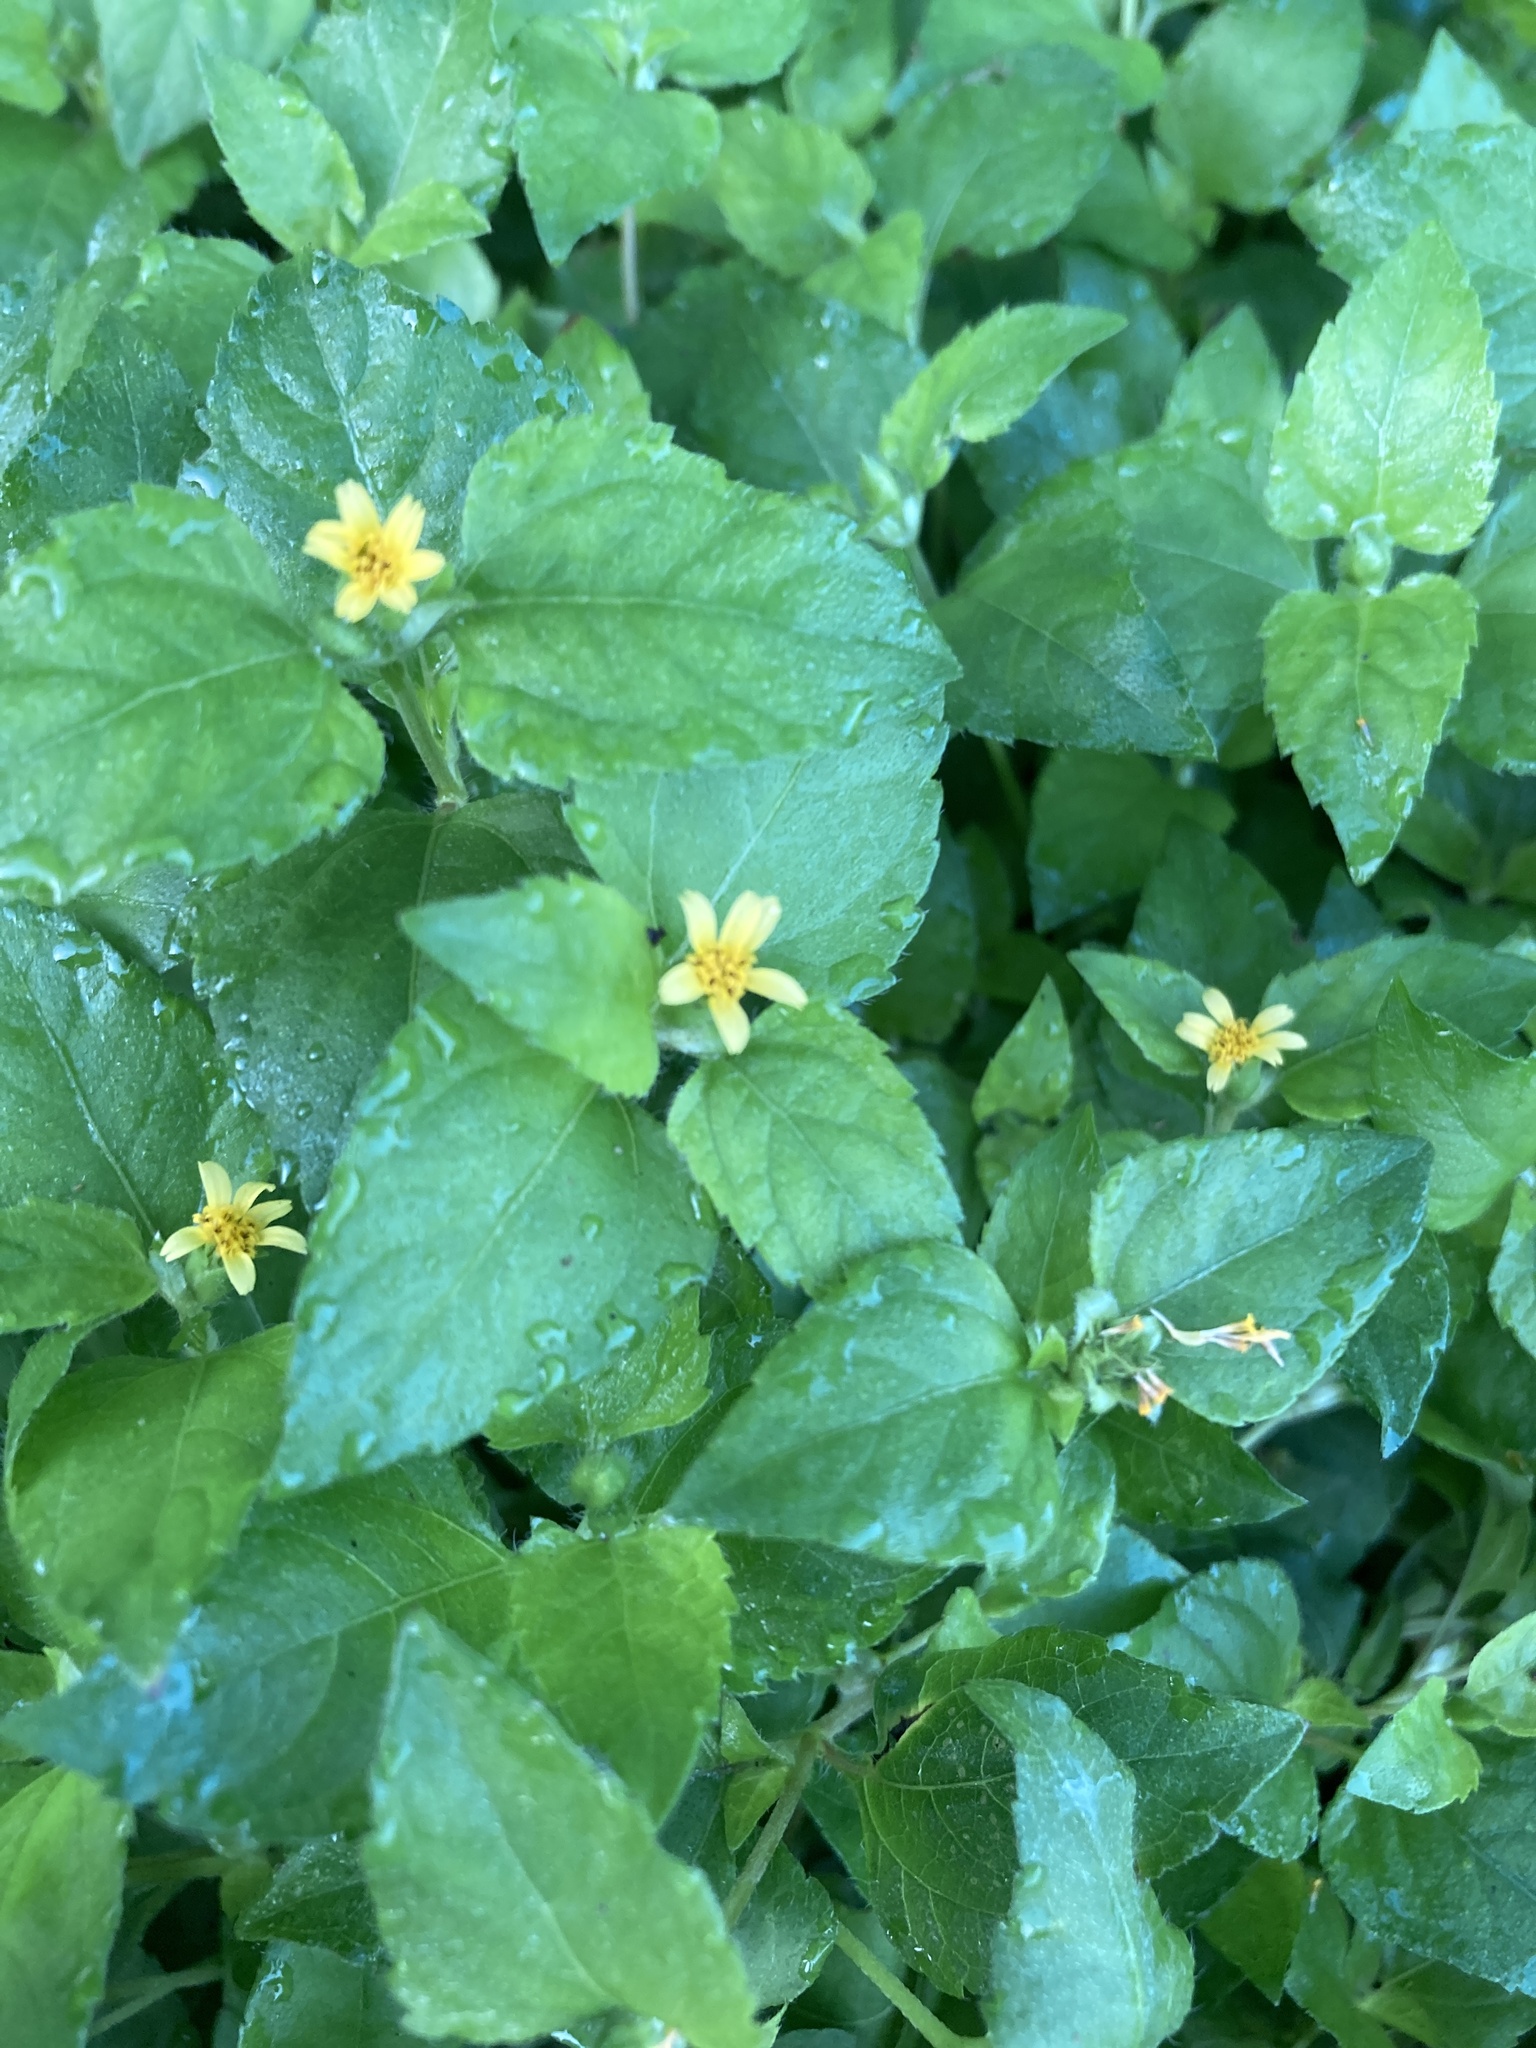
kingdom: Plantae
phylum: Tracheophyta
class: Magnoliopsida
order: Asterales
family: Asteraceae
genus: Calyptocarpus
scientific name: Calyptocarpus vialis
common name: Straggler daisy
